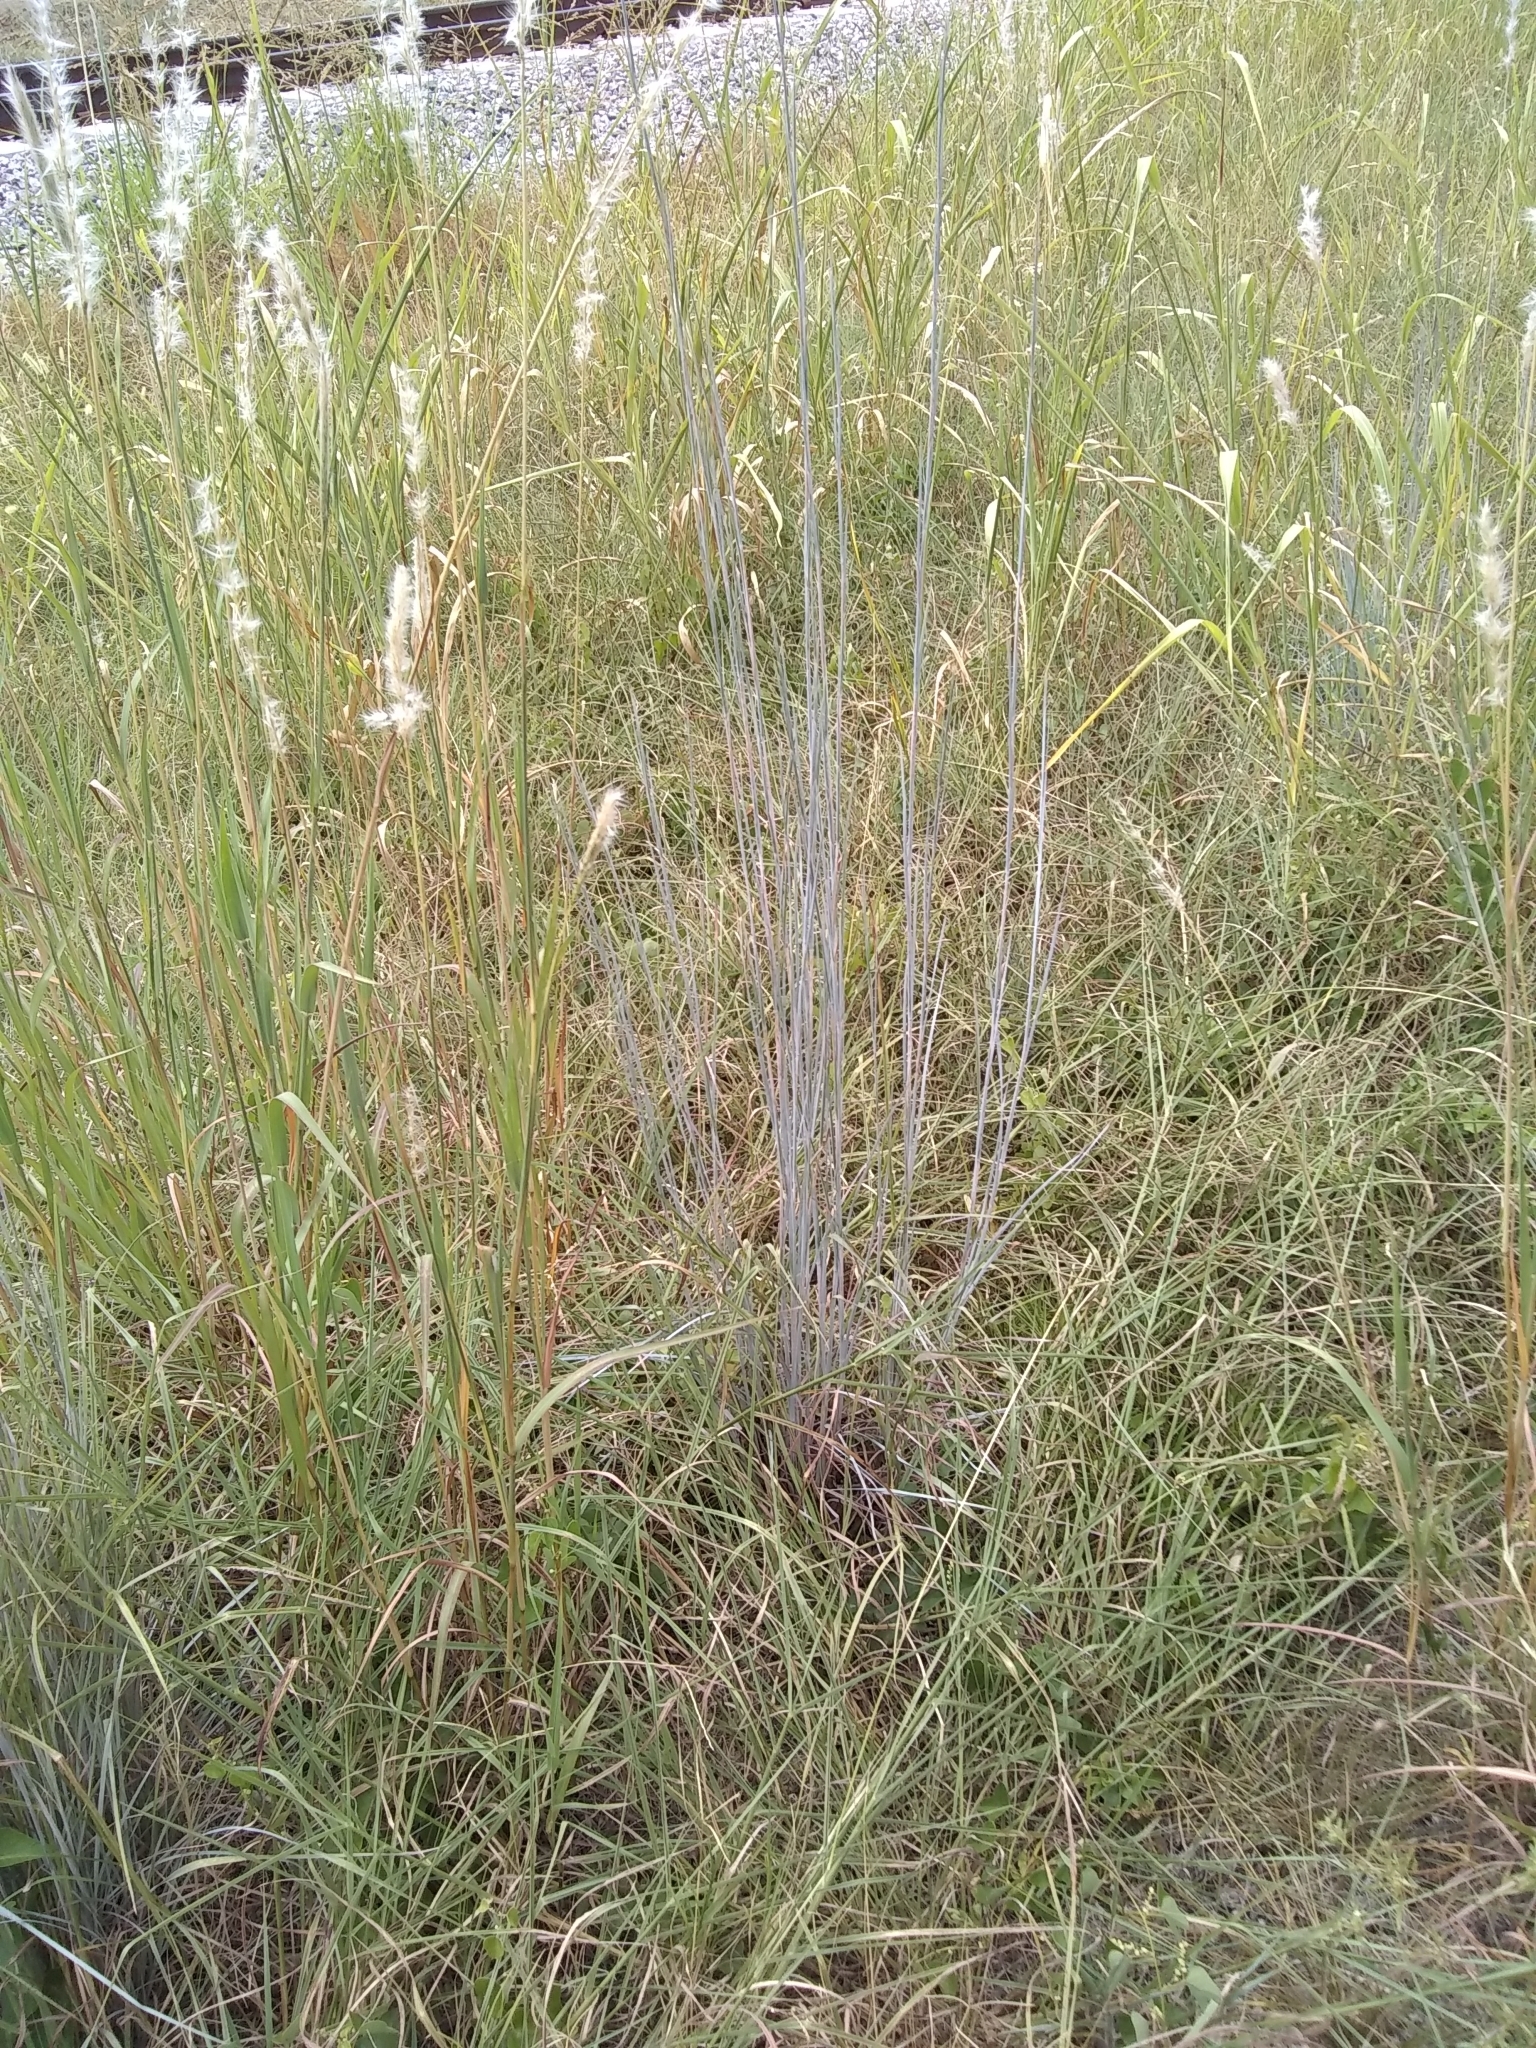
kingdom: Plantae
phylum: Tracheophyta
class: Liliopsida
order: Poales
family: Poaceae
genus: Schizachyrium
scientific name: Schizachyrium scoparium
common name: Little bluestem
